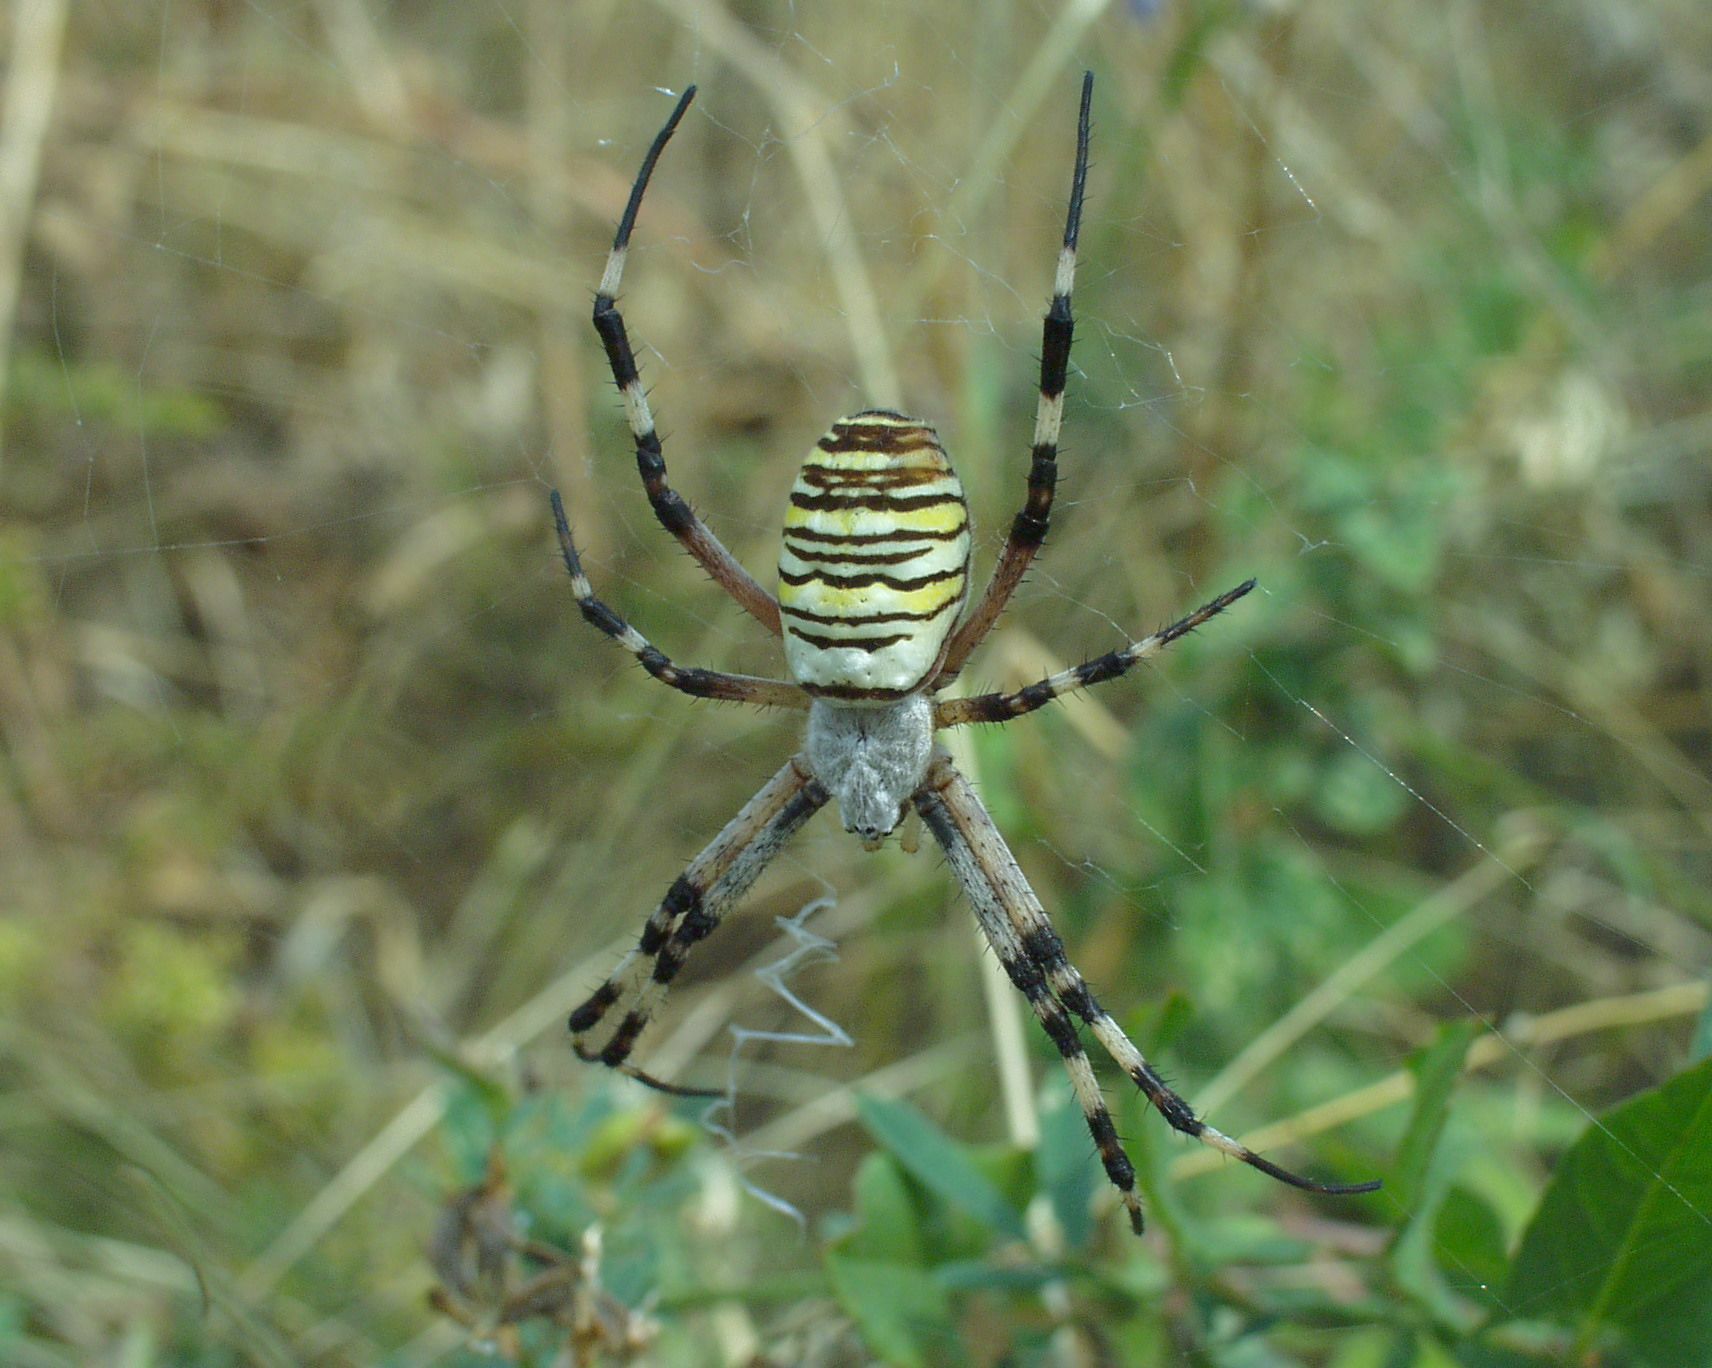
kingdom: Animalia
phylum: Arthropoda
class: Arachnida
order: Araneae
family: Araneidae
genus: Argiope
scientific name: Argiope bruennichi
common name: Wasp spider
